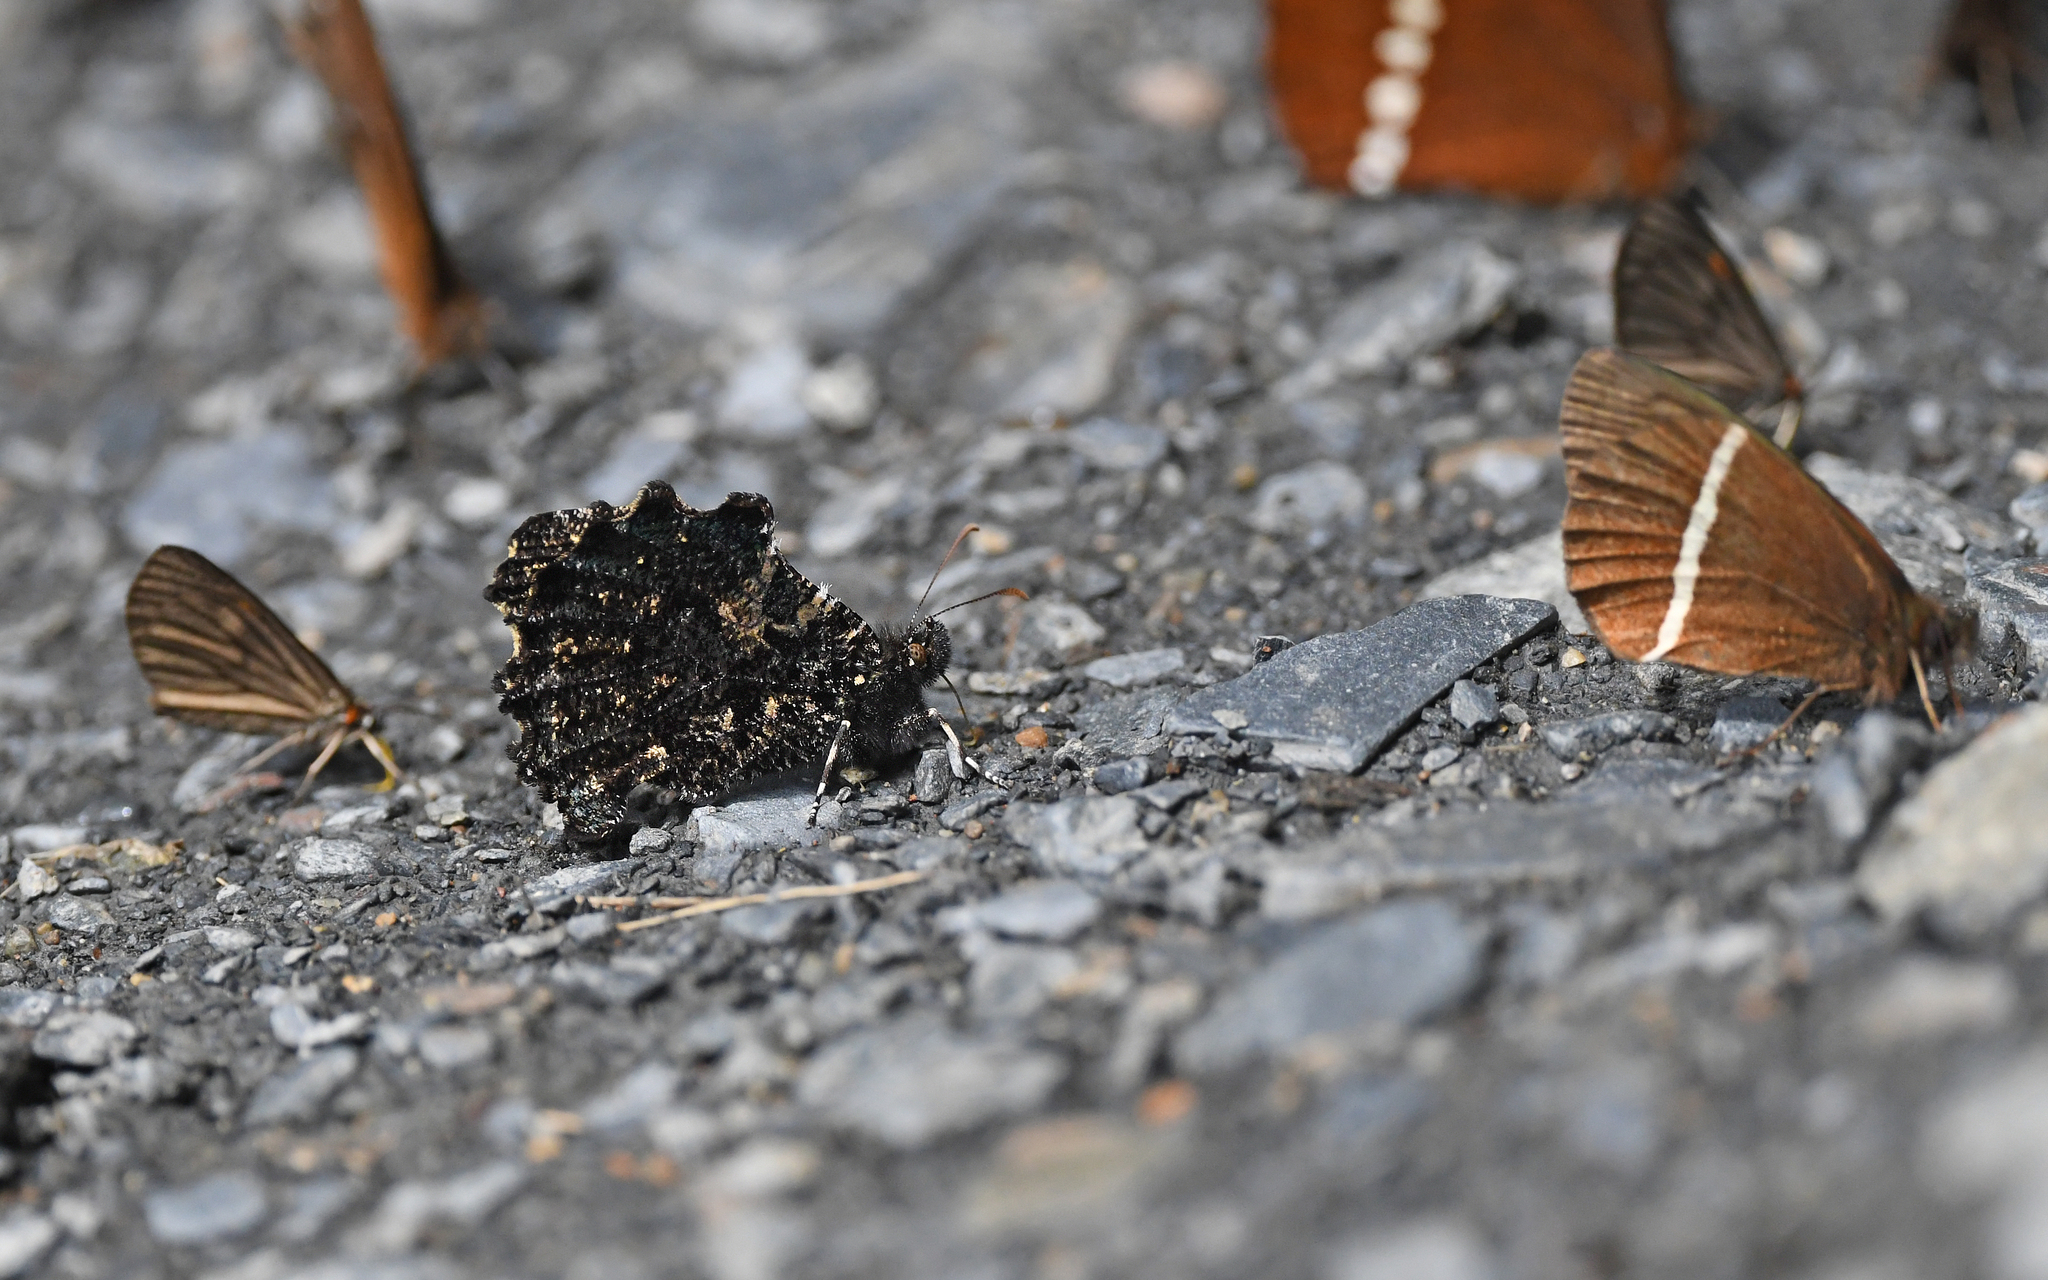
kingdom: Animalia
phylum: Arthropoda
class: Insecta
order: Lepidoptera
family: Nymphalidae
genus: Steroma
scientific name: Steroma bega
